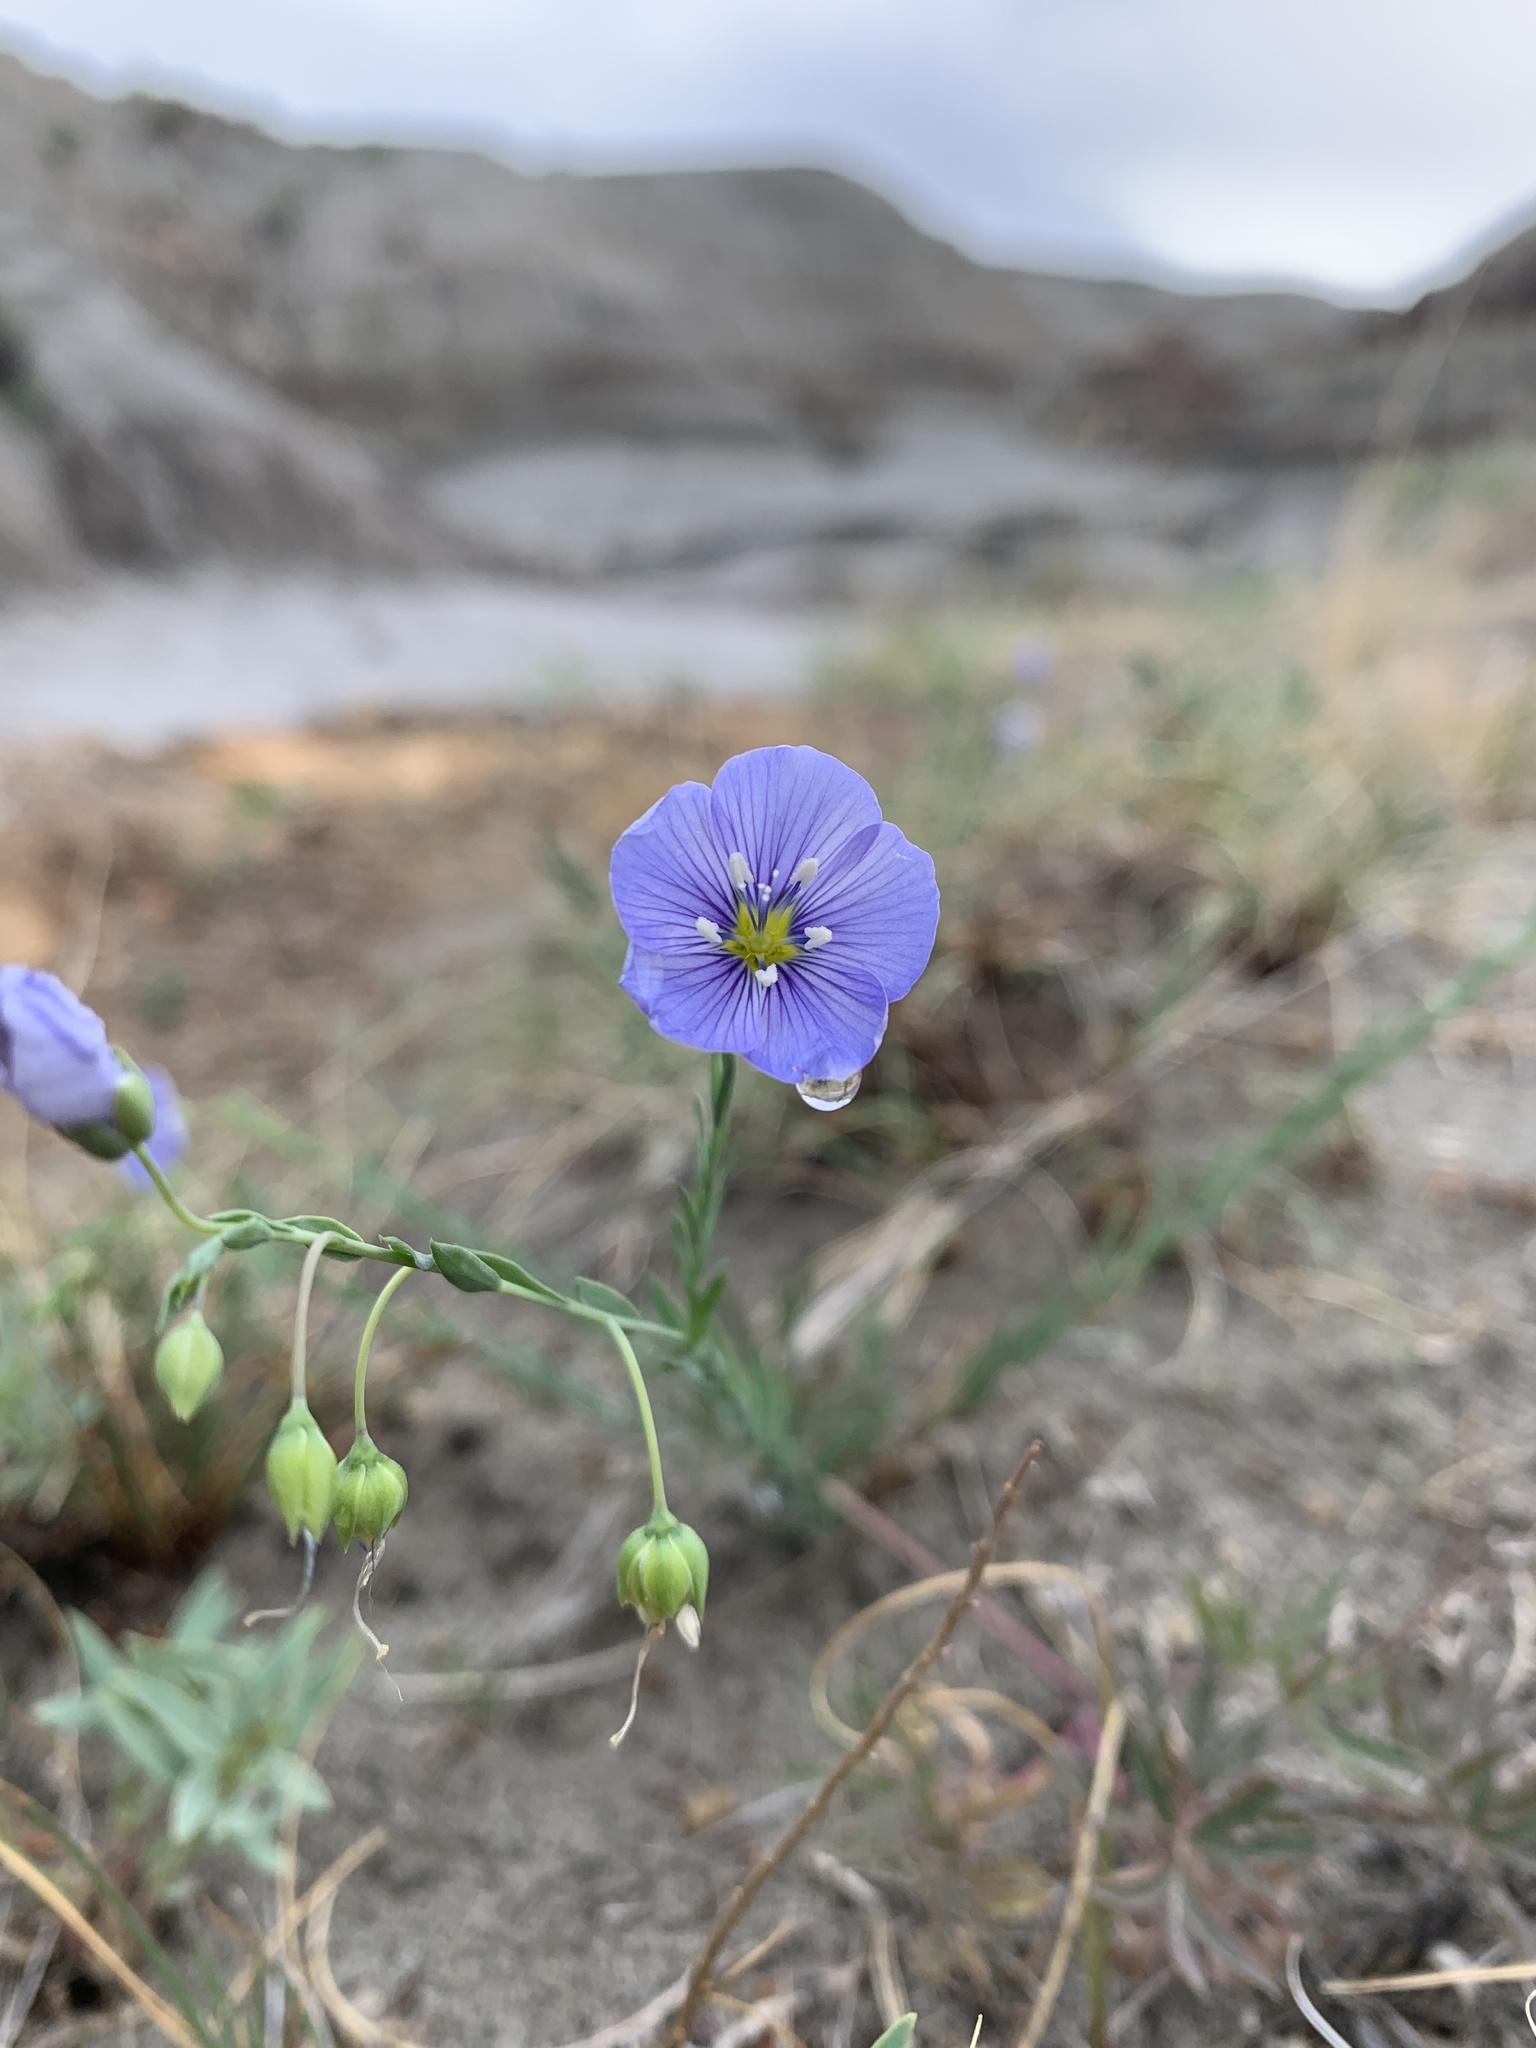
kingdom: Plantae
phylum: Tracheophyta
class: Magnoliopsida
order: Malpighiales
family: Linaceae
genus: Linum
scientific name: Linum lewisii
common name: Prairie flax
